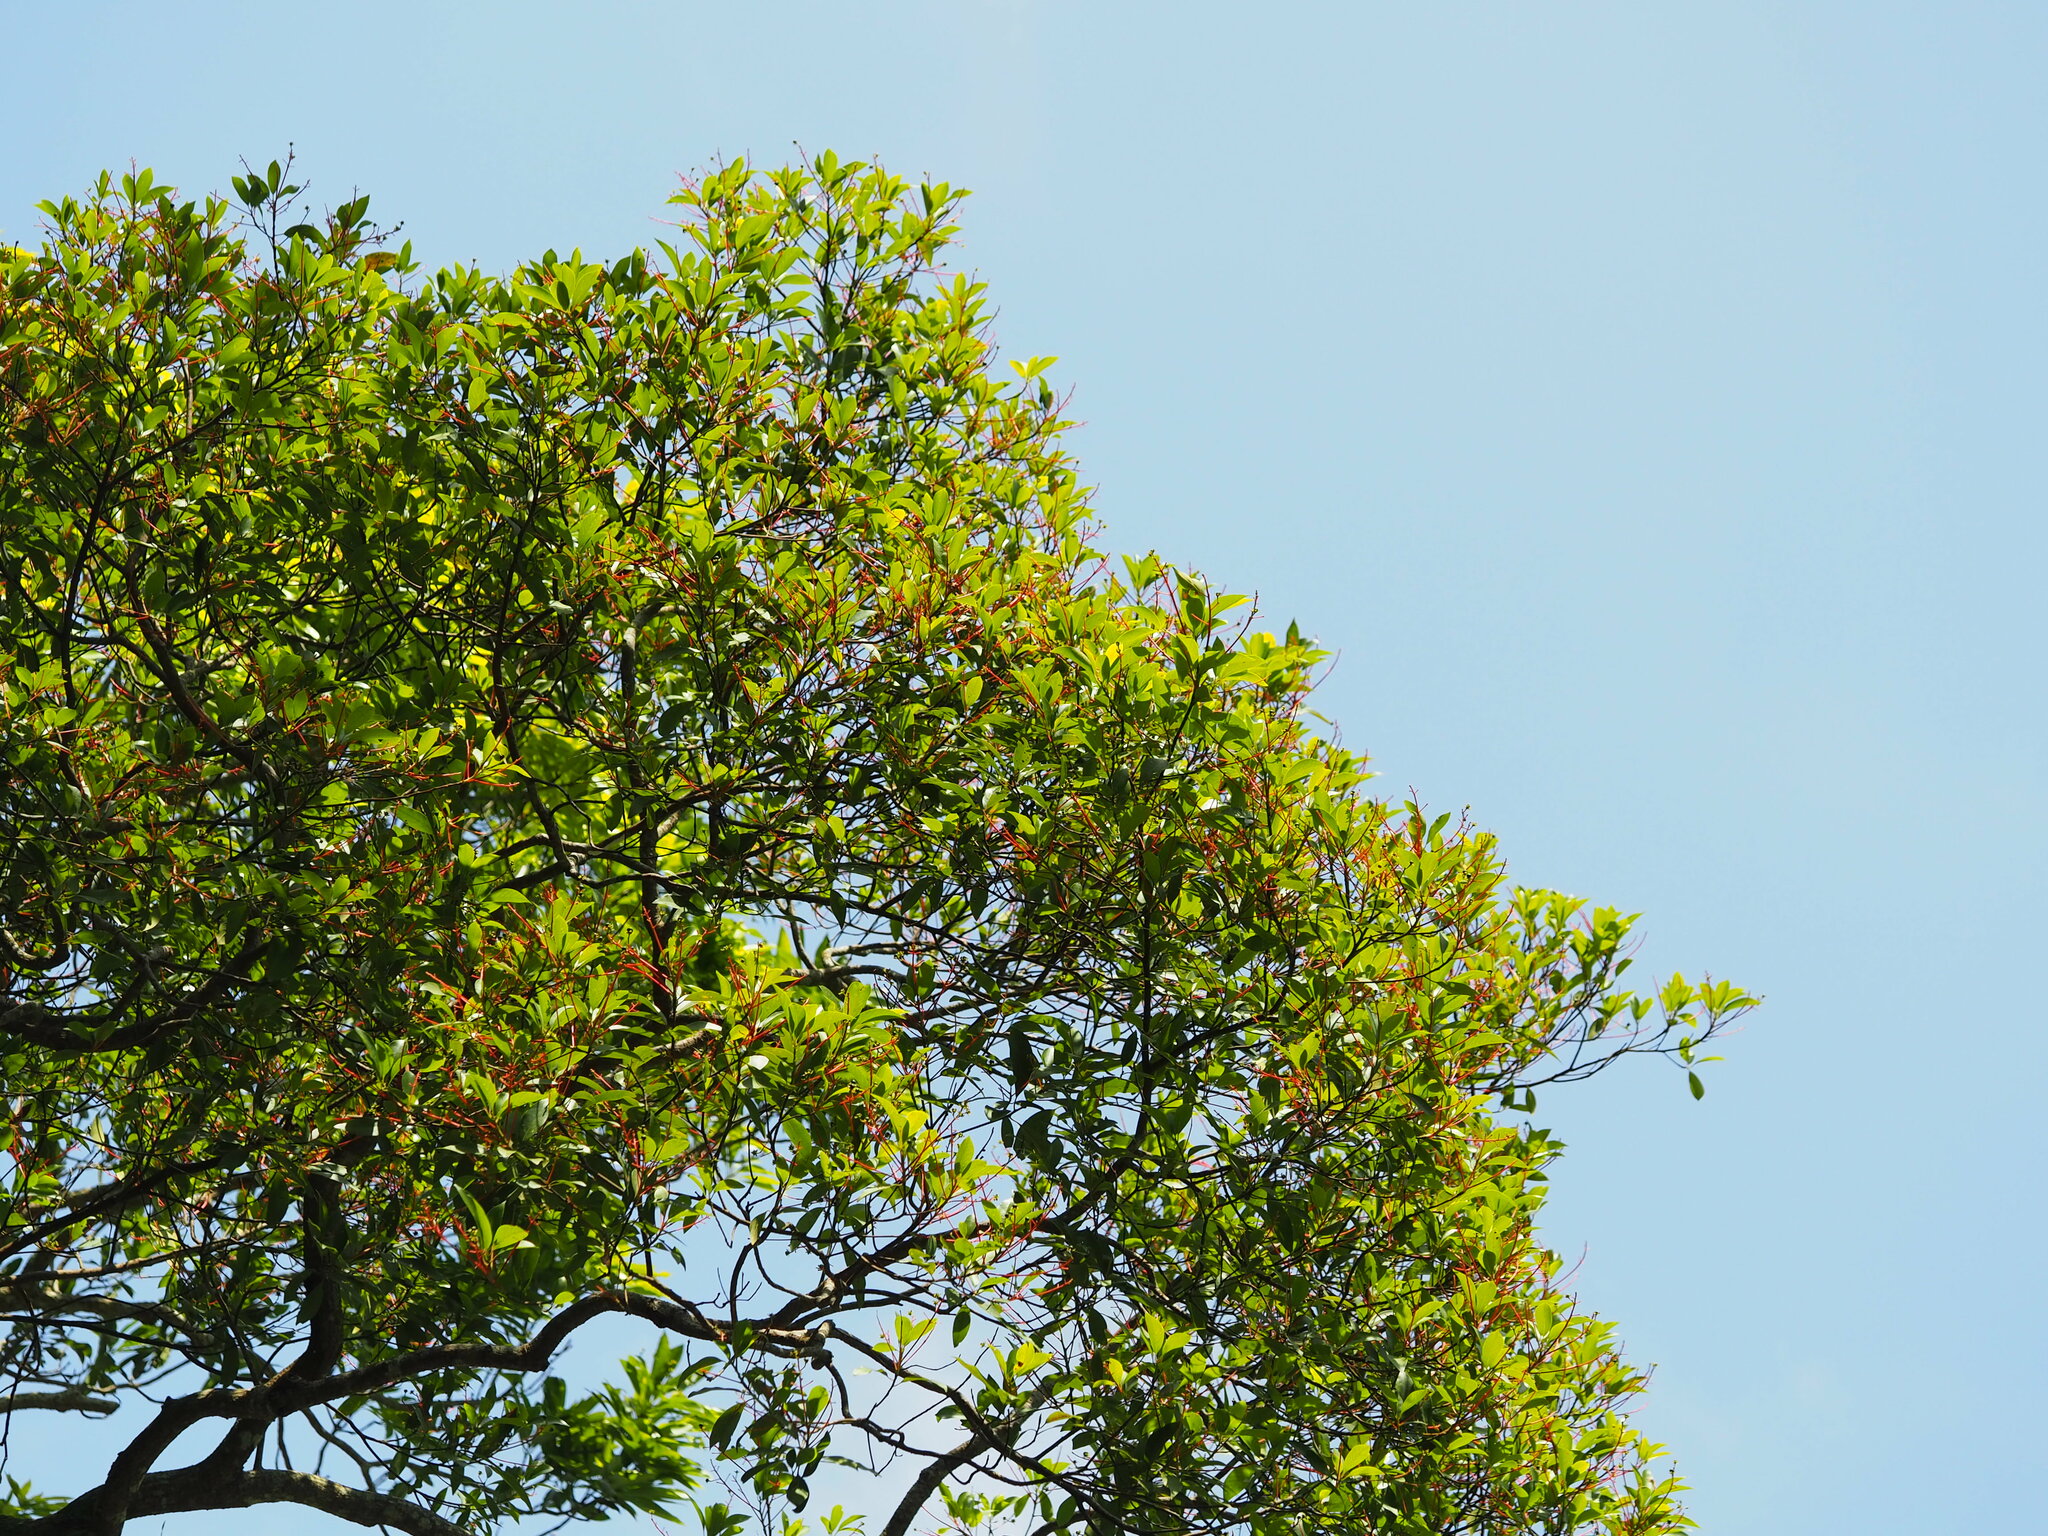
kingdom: Plantae
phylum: Tracheophyta
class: Magnoliopsida
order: Laurales
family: Lauraceae
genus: Machilus
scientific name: Machilus thunbergii
